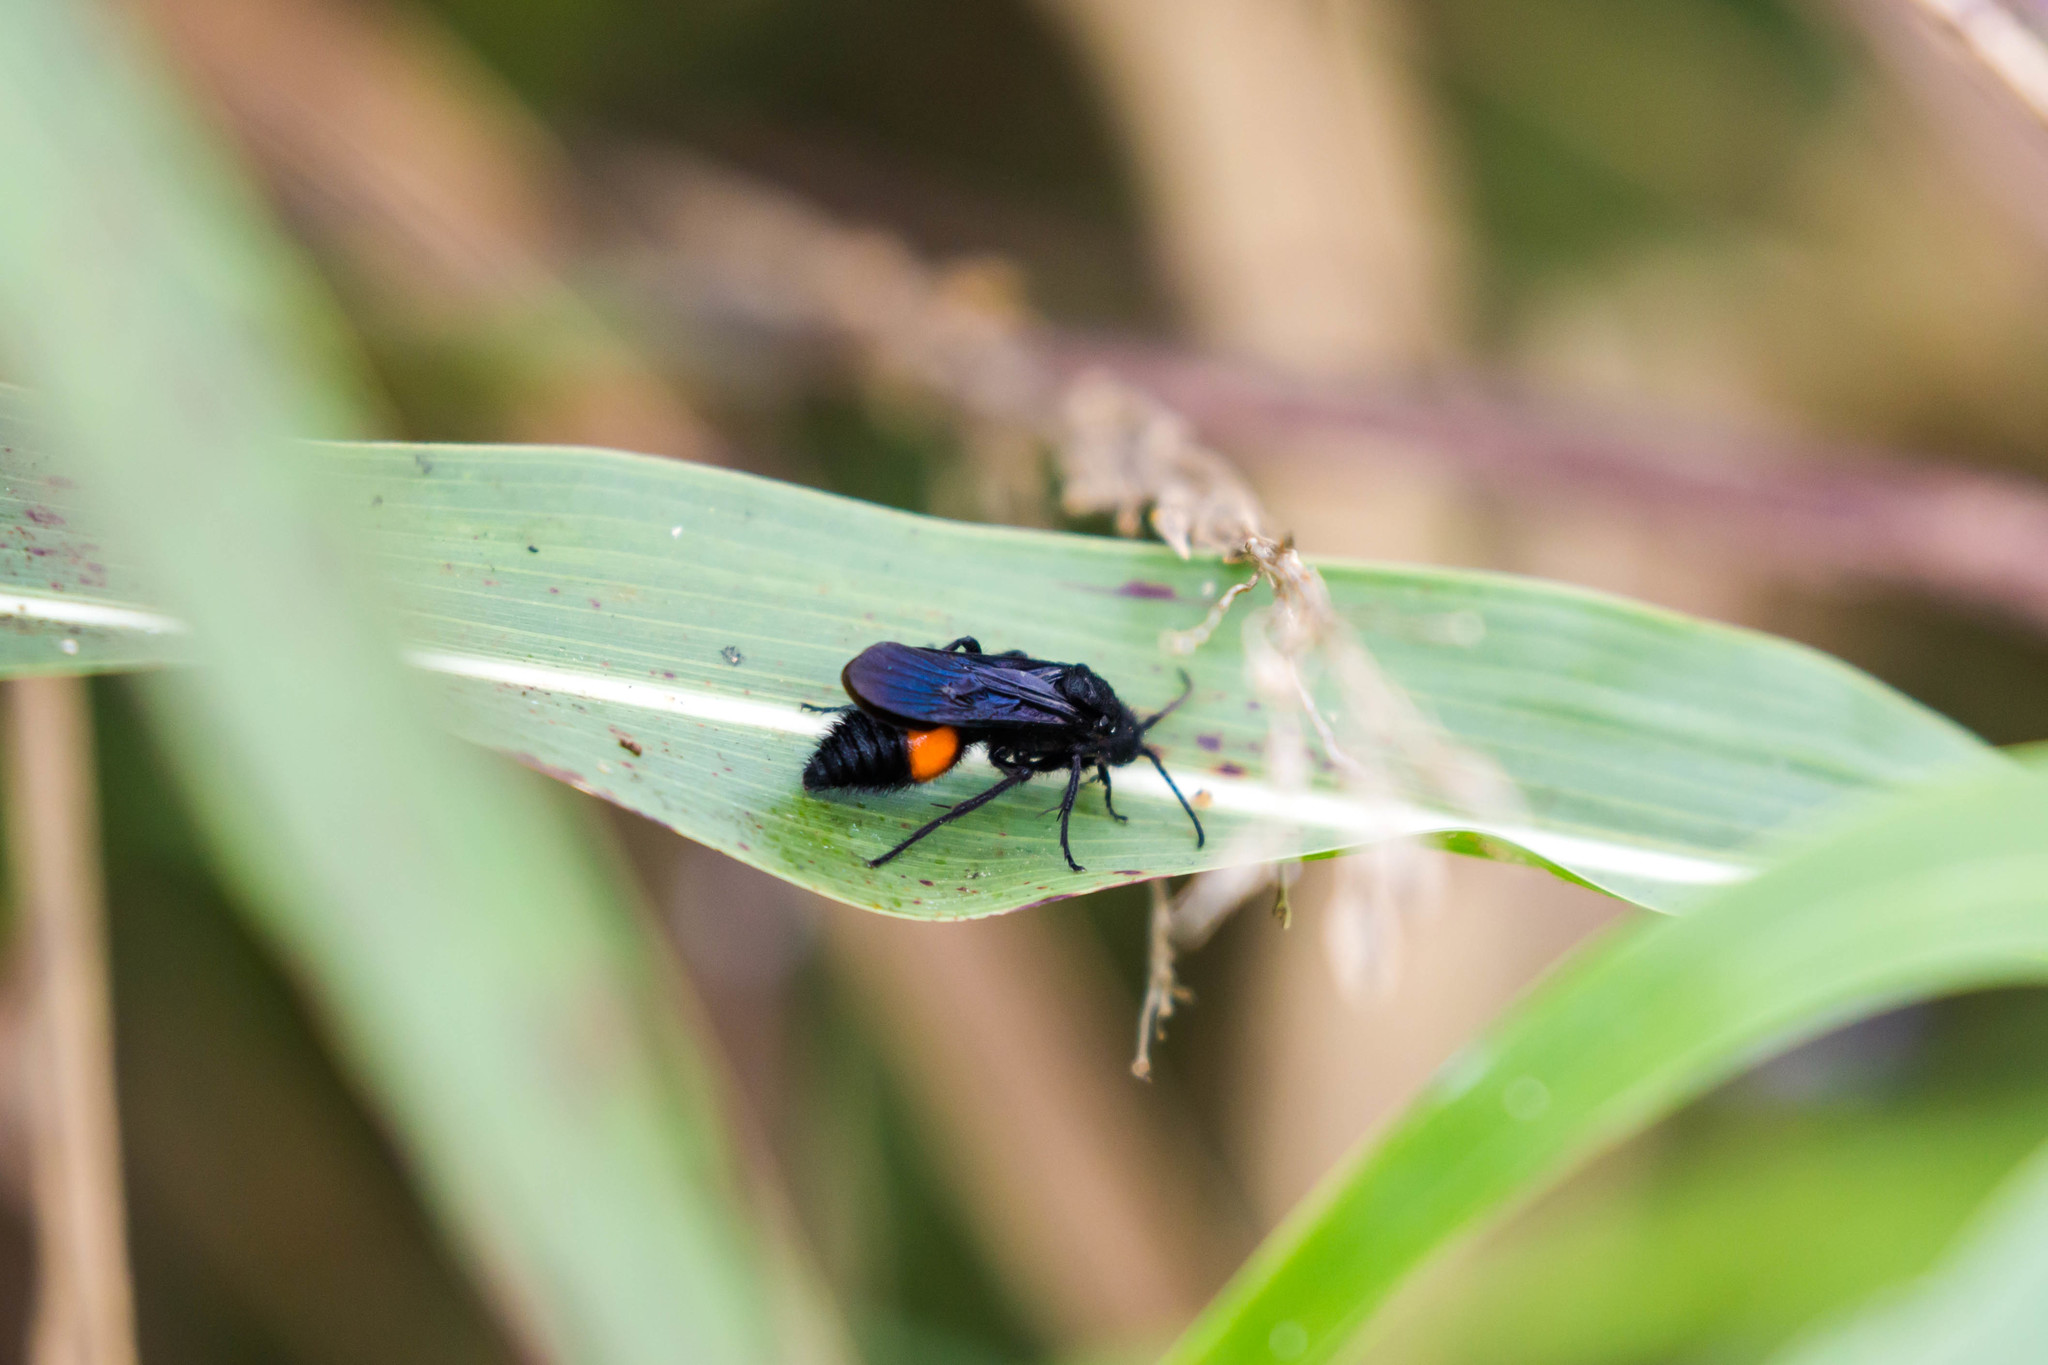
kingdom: Animalia
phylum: Arthropoda
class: Insecta
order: Hymenoptera
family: Mutillidae
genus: Dasymutilla
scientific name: Dasymutilla
